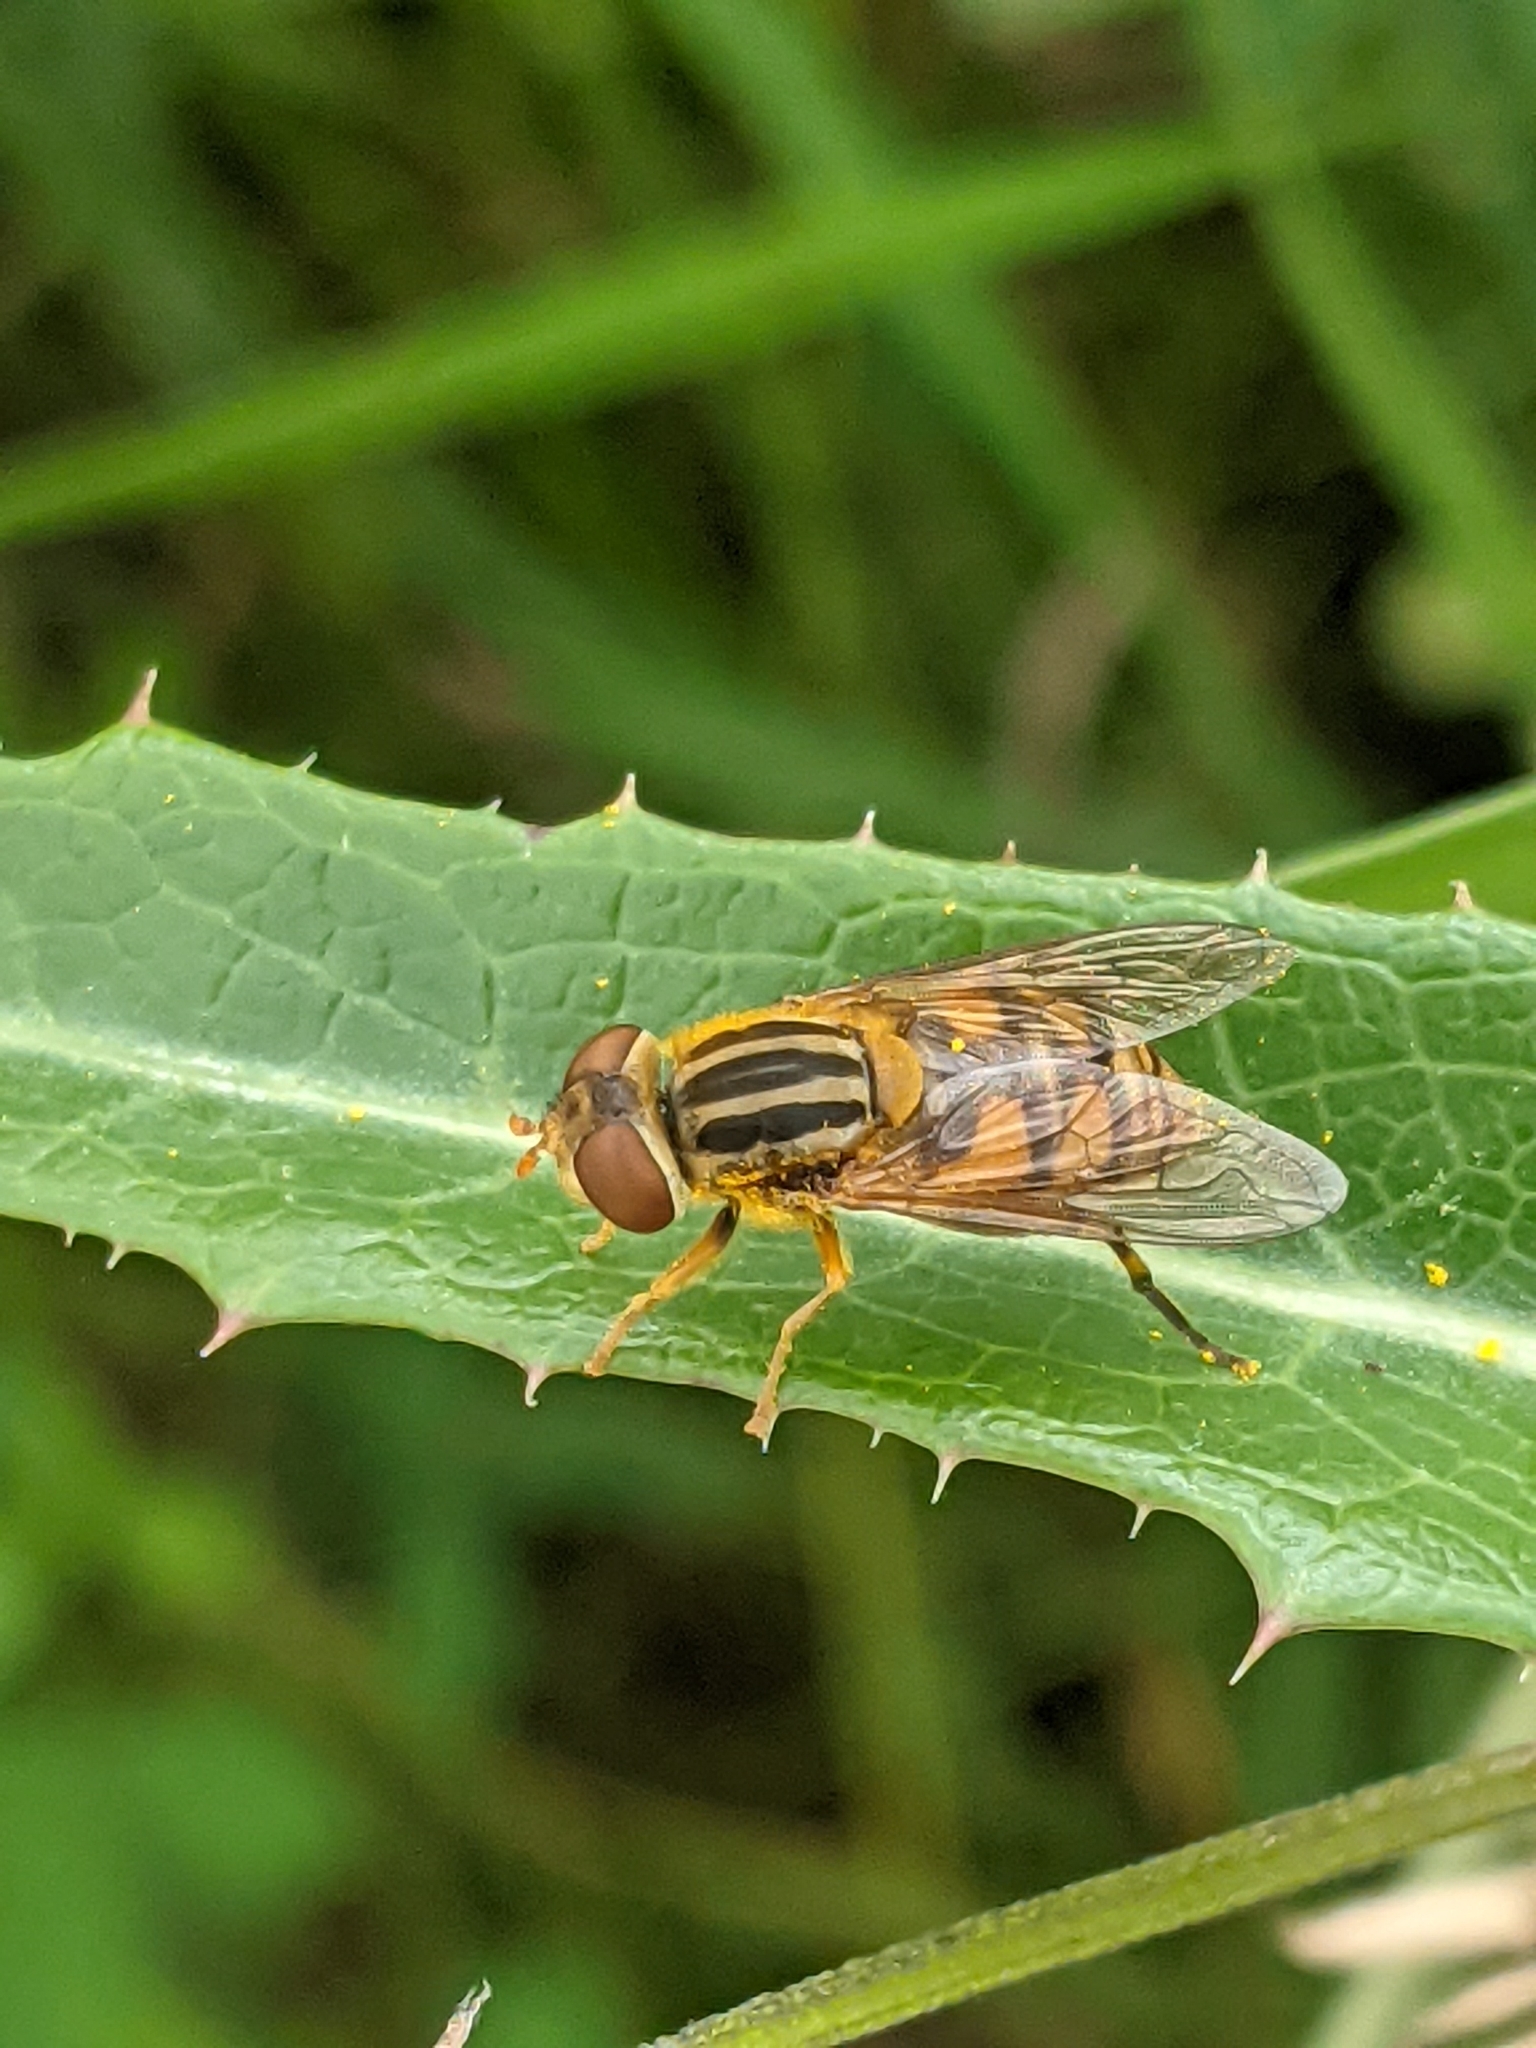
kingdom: Animalia
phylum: Arthropoda
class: Insecta
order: Diptera
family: Syrphidae
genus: Parhelophilus
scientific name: Parhelophilus laetus
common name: Common bog fly
